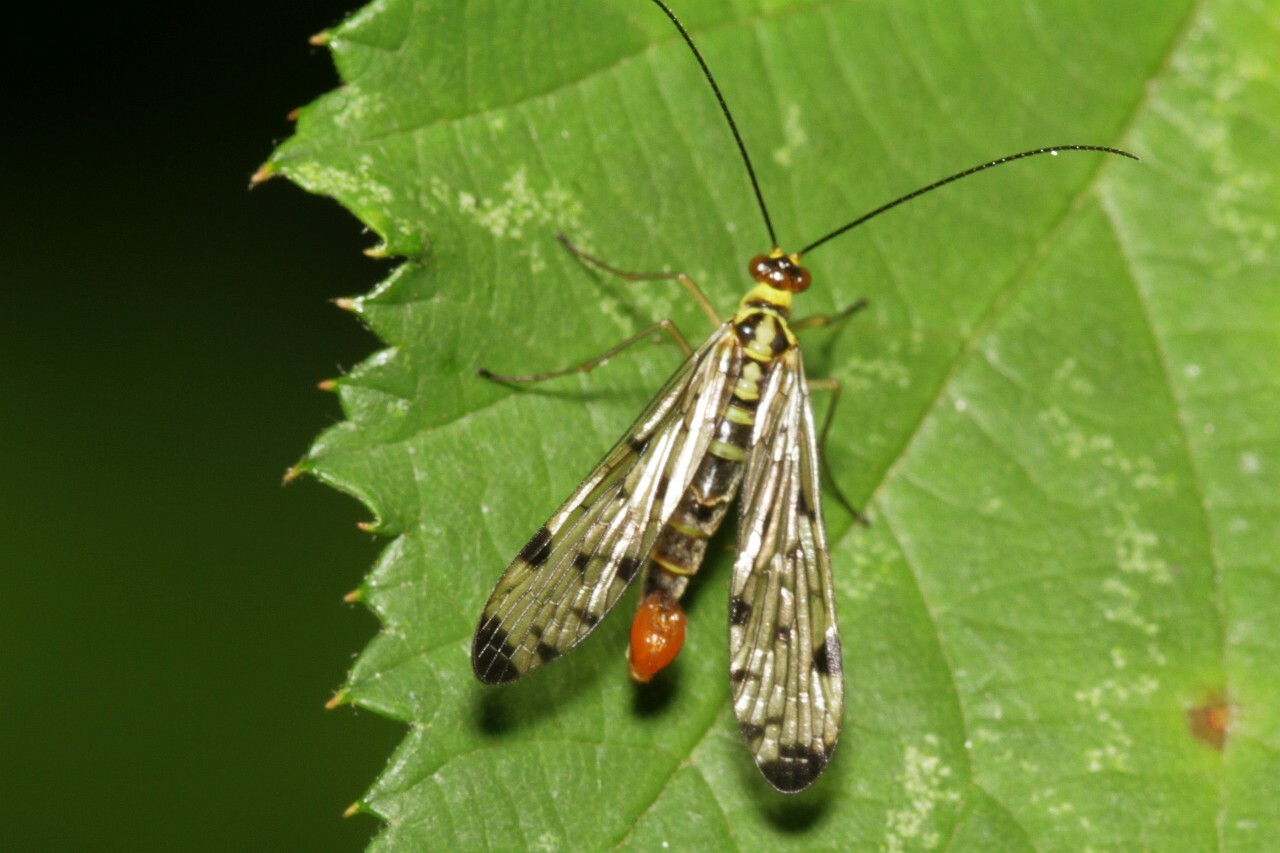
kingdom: Animalia
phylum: Arthropoda
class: Insecta
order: Mecoptera
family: Panorpidae
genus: Panorpa
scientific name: Panorpa germanica
